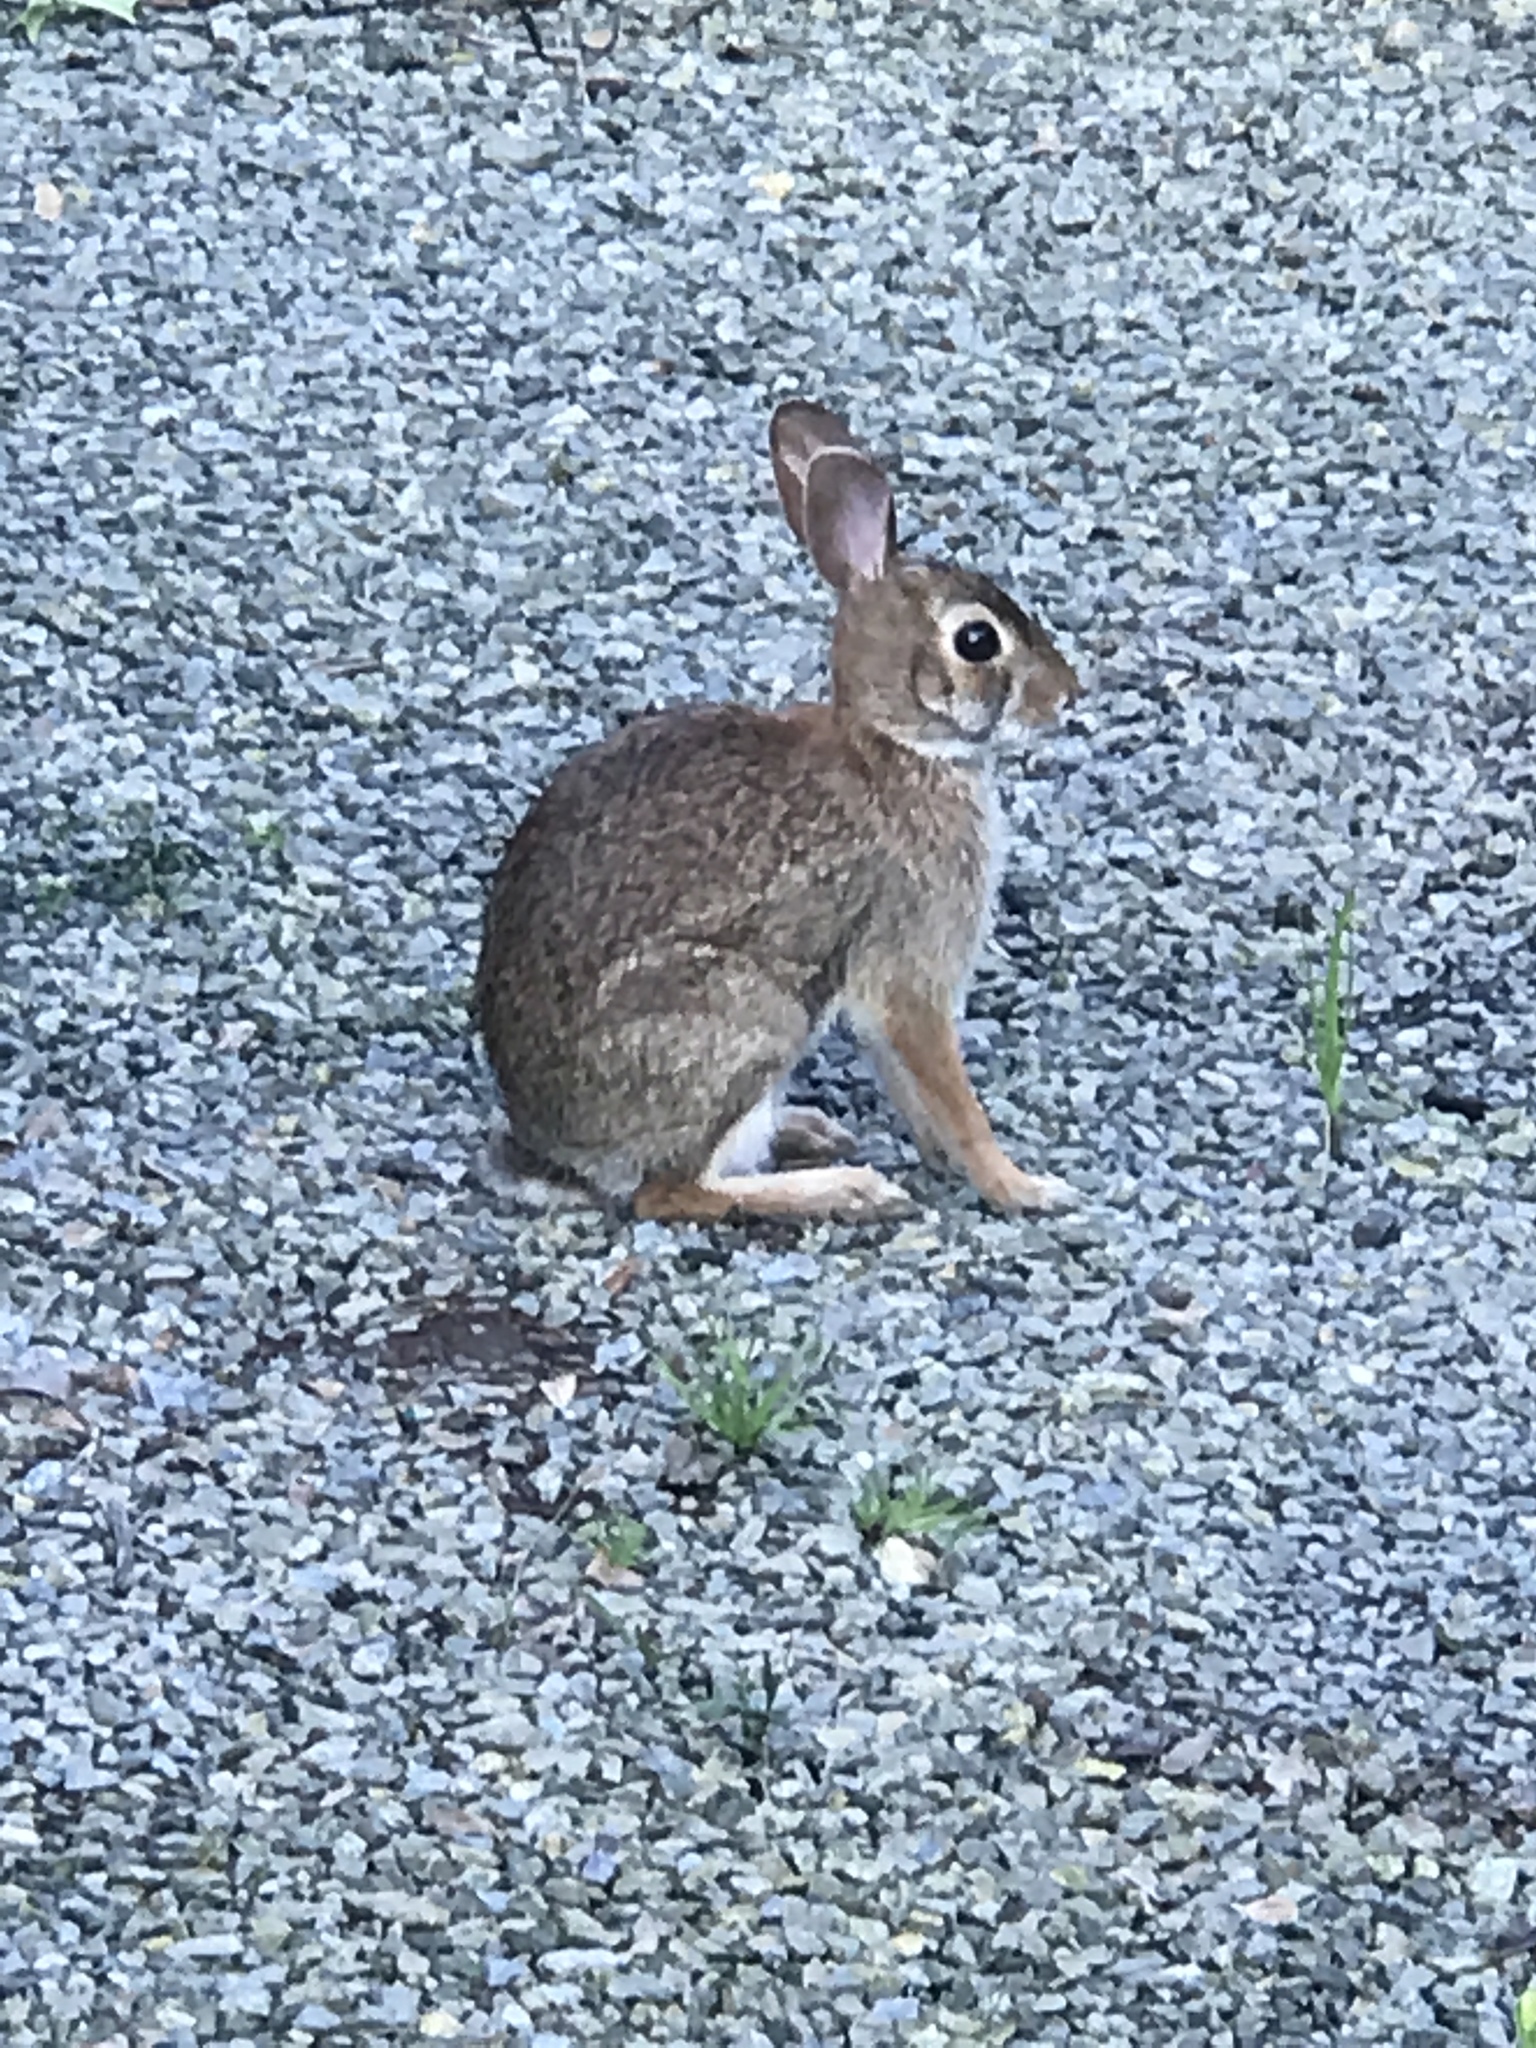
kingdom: Animalia
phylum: Chordata
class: Mammalia
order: Lagomorpha
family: Leporidae
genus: Sylvilagus
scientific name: Sylvilagus floridanus
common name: Eastern cottontail
